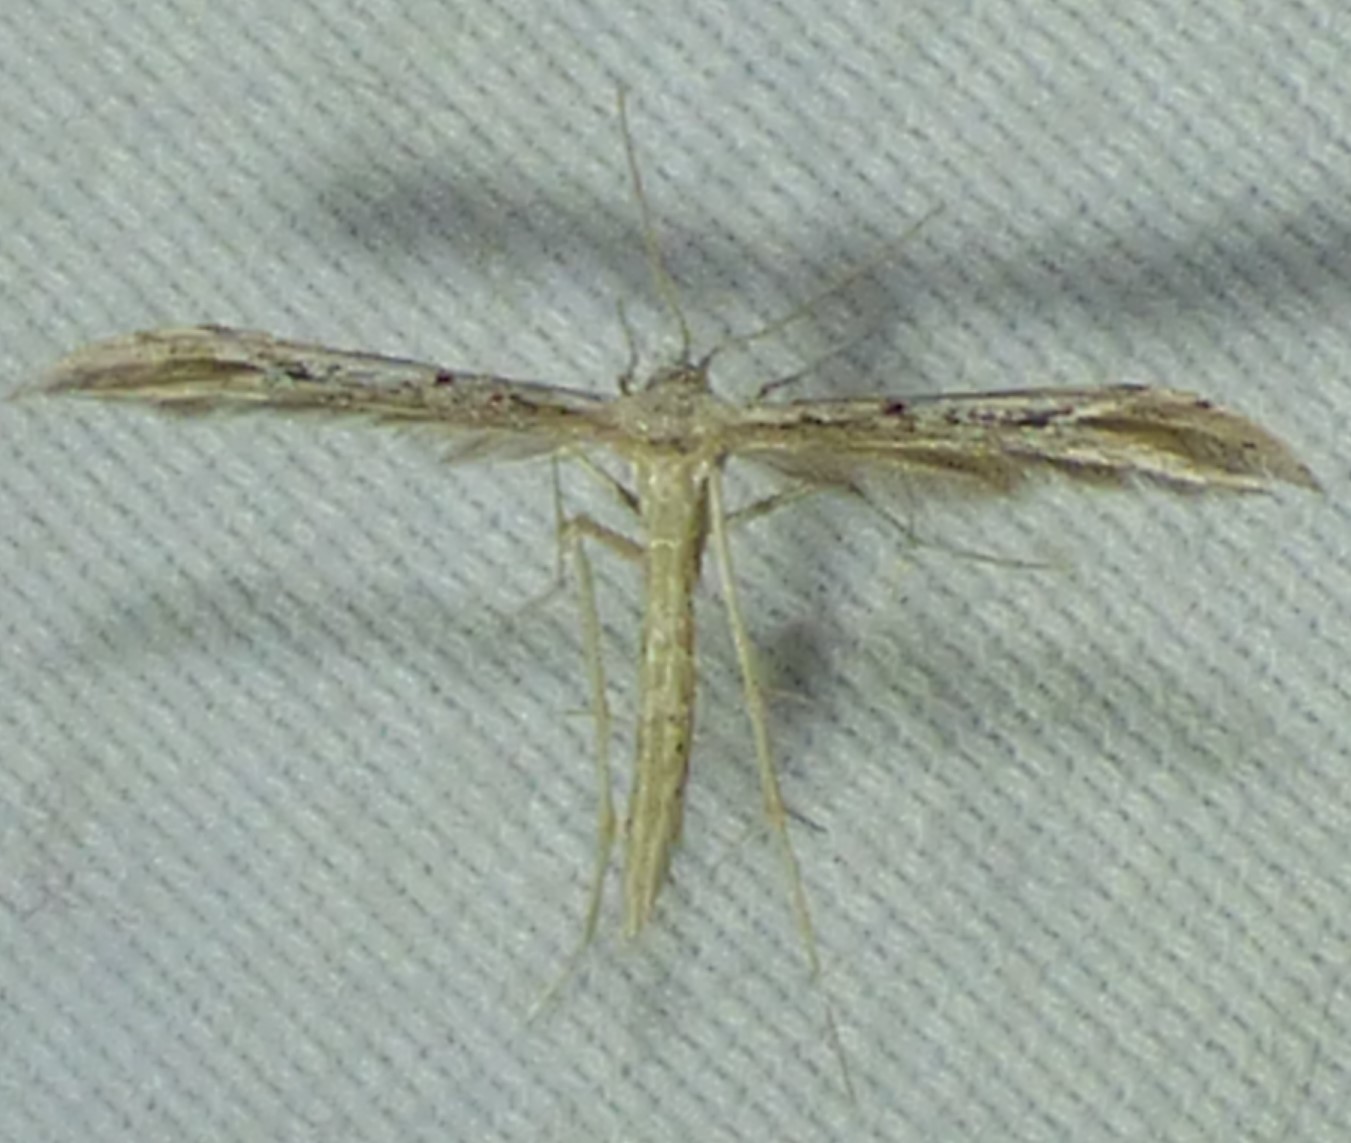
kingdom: Animalia
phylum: Arthropoda
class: Insecta
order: Lepidoptera
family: Pterophoridae
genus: Pselnophorus
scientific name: Pselnophorus belfragei
